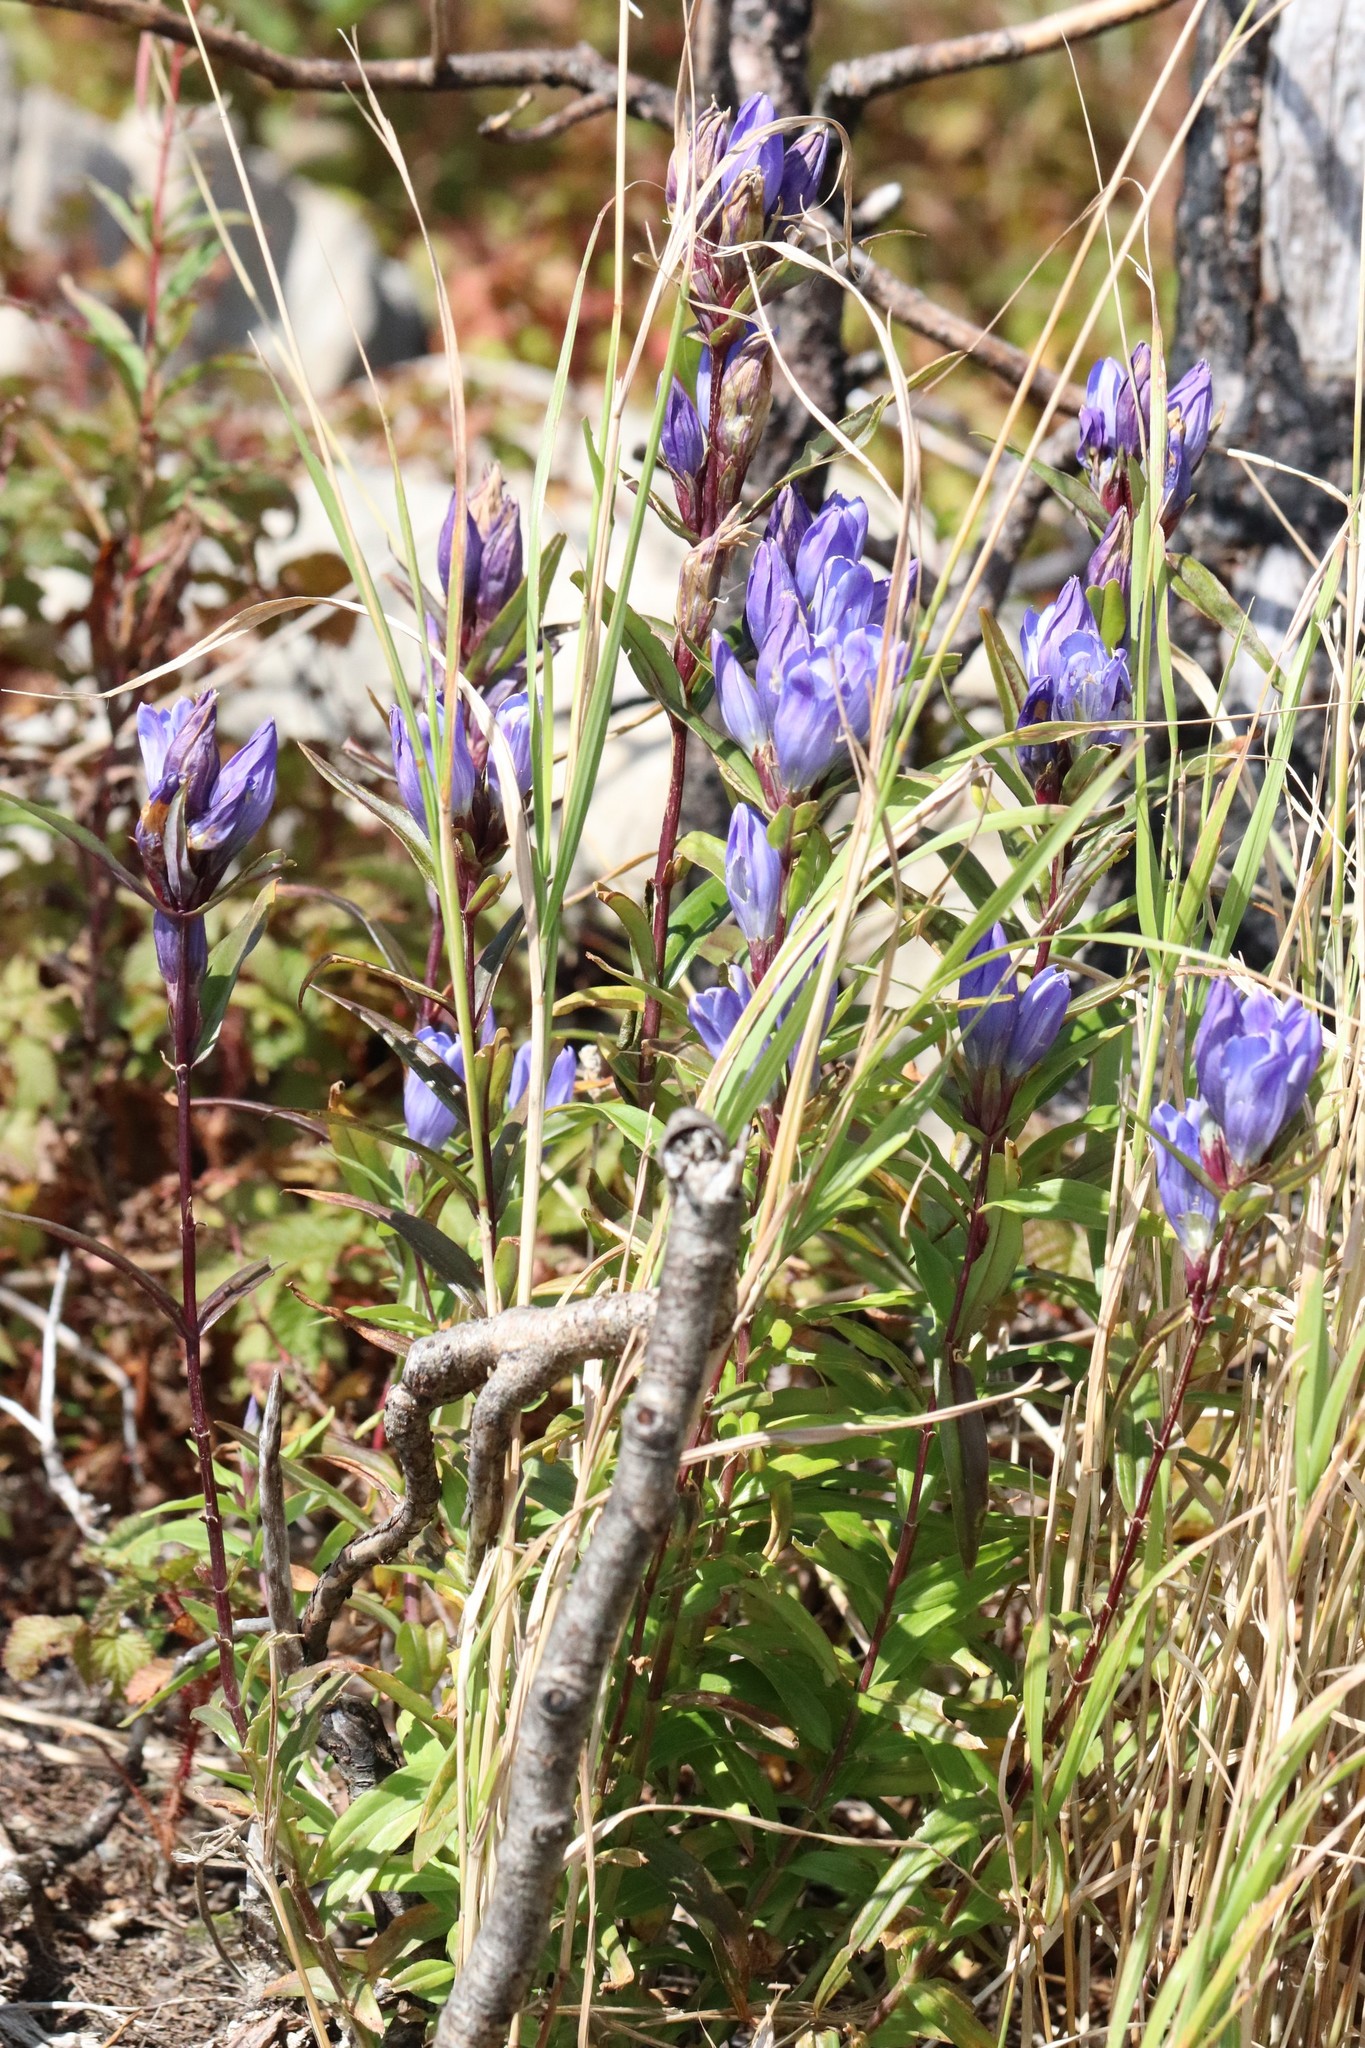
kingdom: Plantae
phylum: Tracheophyta
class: Magnoliopsida
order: Gentianales
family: Gentianaceae
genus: Gentiana
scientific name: Gentiana triflora
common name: Three-flower gentian
